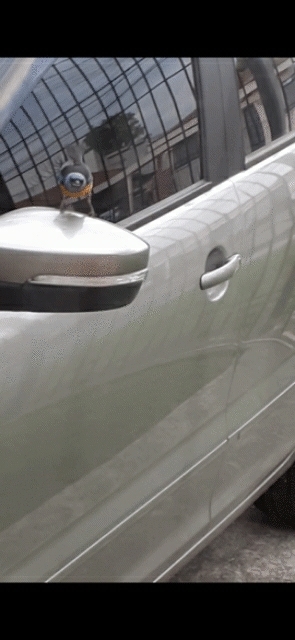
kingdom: Animalia
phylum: Chordata
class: Aves
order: Passeriformes
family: Thraupidae
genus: Rauenia
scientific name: Rauenia bonariensis
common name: Blue-and-yellow tanager
